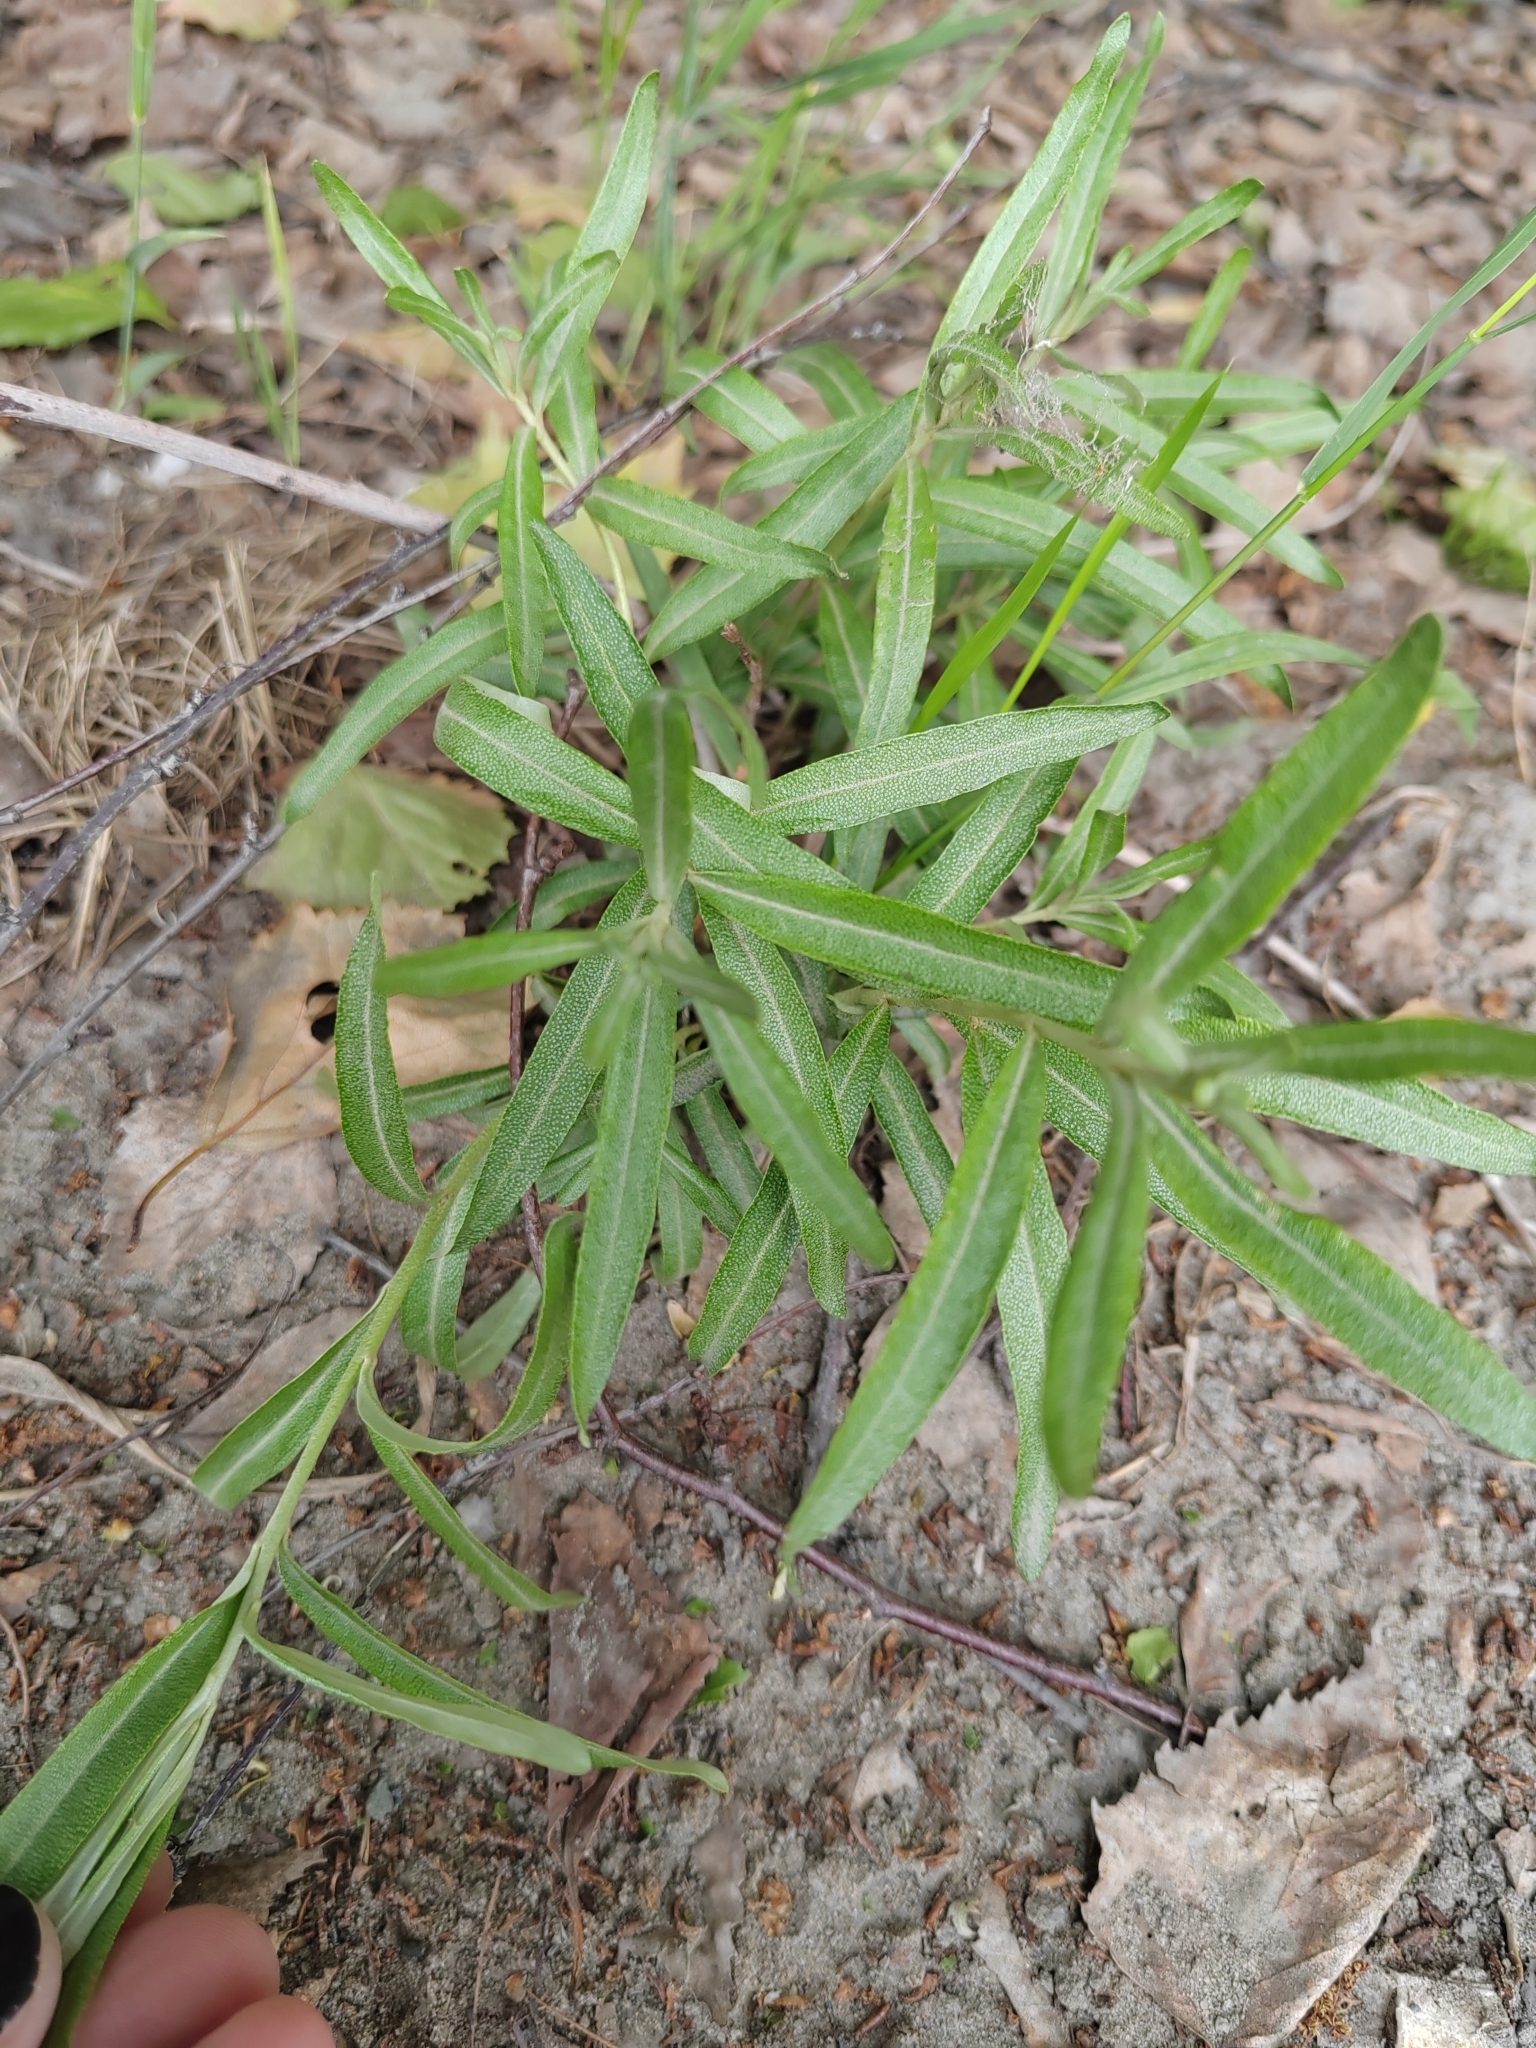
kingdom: Plantae
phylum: Tracheophyta
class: Magnoliopsida
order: Rosales
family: Elaeagnaceae
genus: Hippophae
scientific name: Hippophae rhamnoides
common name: Sea-buckthorn
